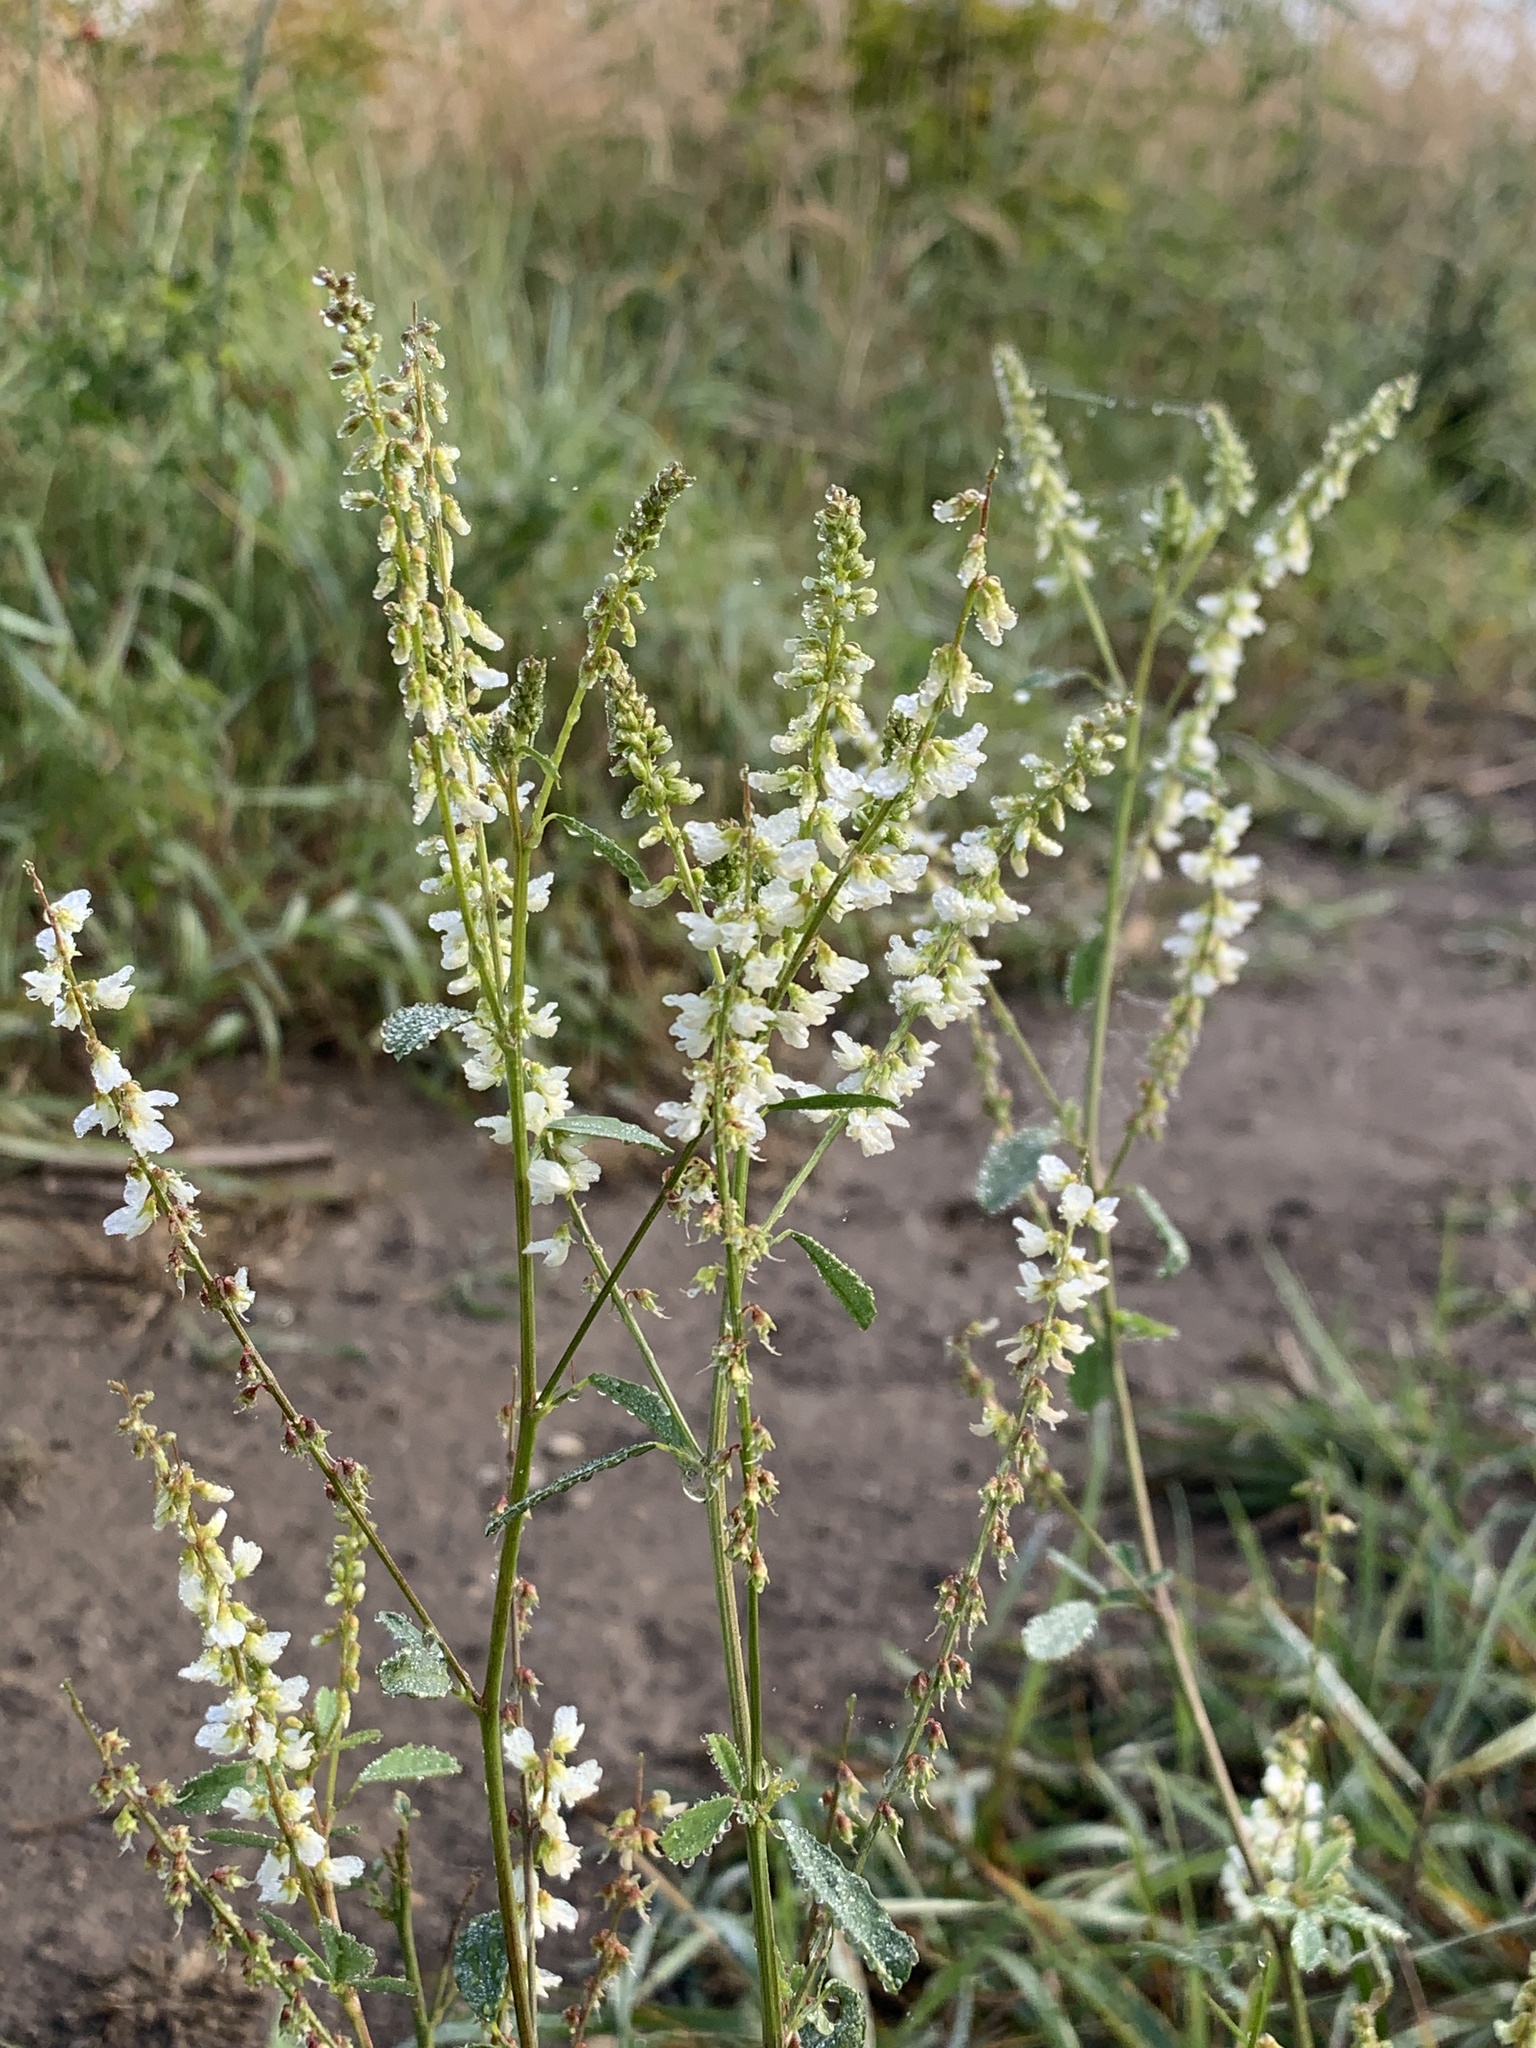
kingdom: Plantae
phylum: Tracheophyta
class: Magnoliopsida
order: Fabales
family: Fabaceae
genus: Melilotus
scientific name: Melilotus albus
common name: White melilot
